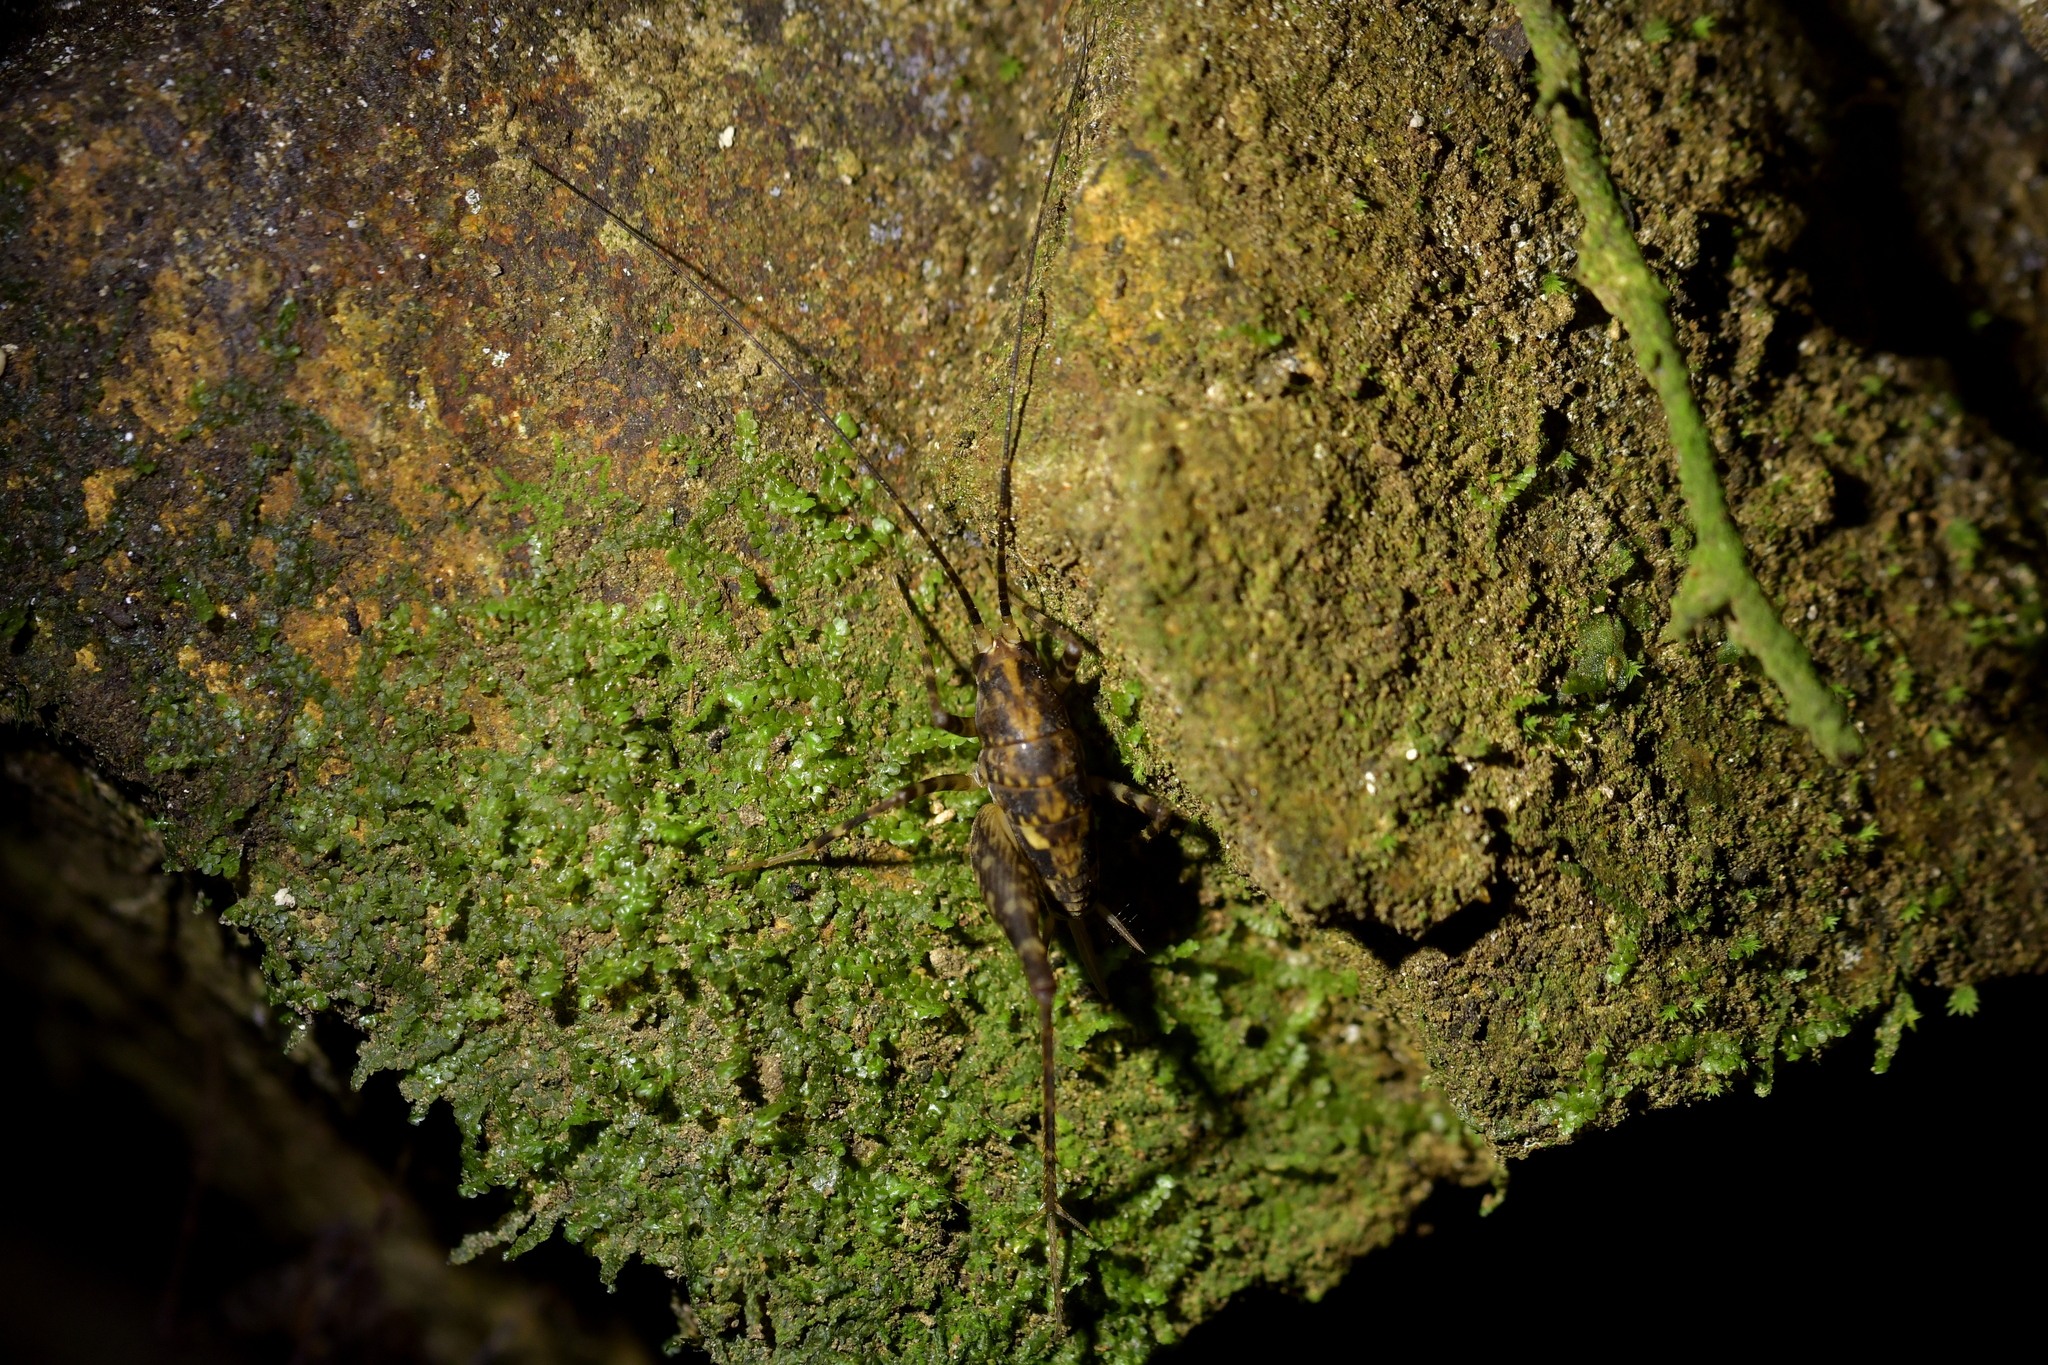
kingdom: Animalia
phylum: Arthropoda
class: Insecta
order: Orthoptera
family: Rhaphidophoridae
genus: Miotopus
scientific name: Miotopus diversus
